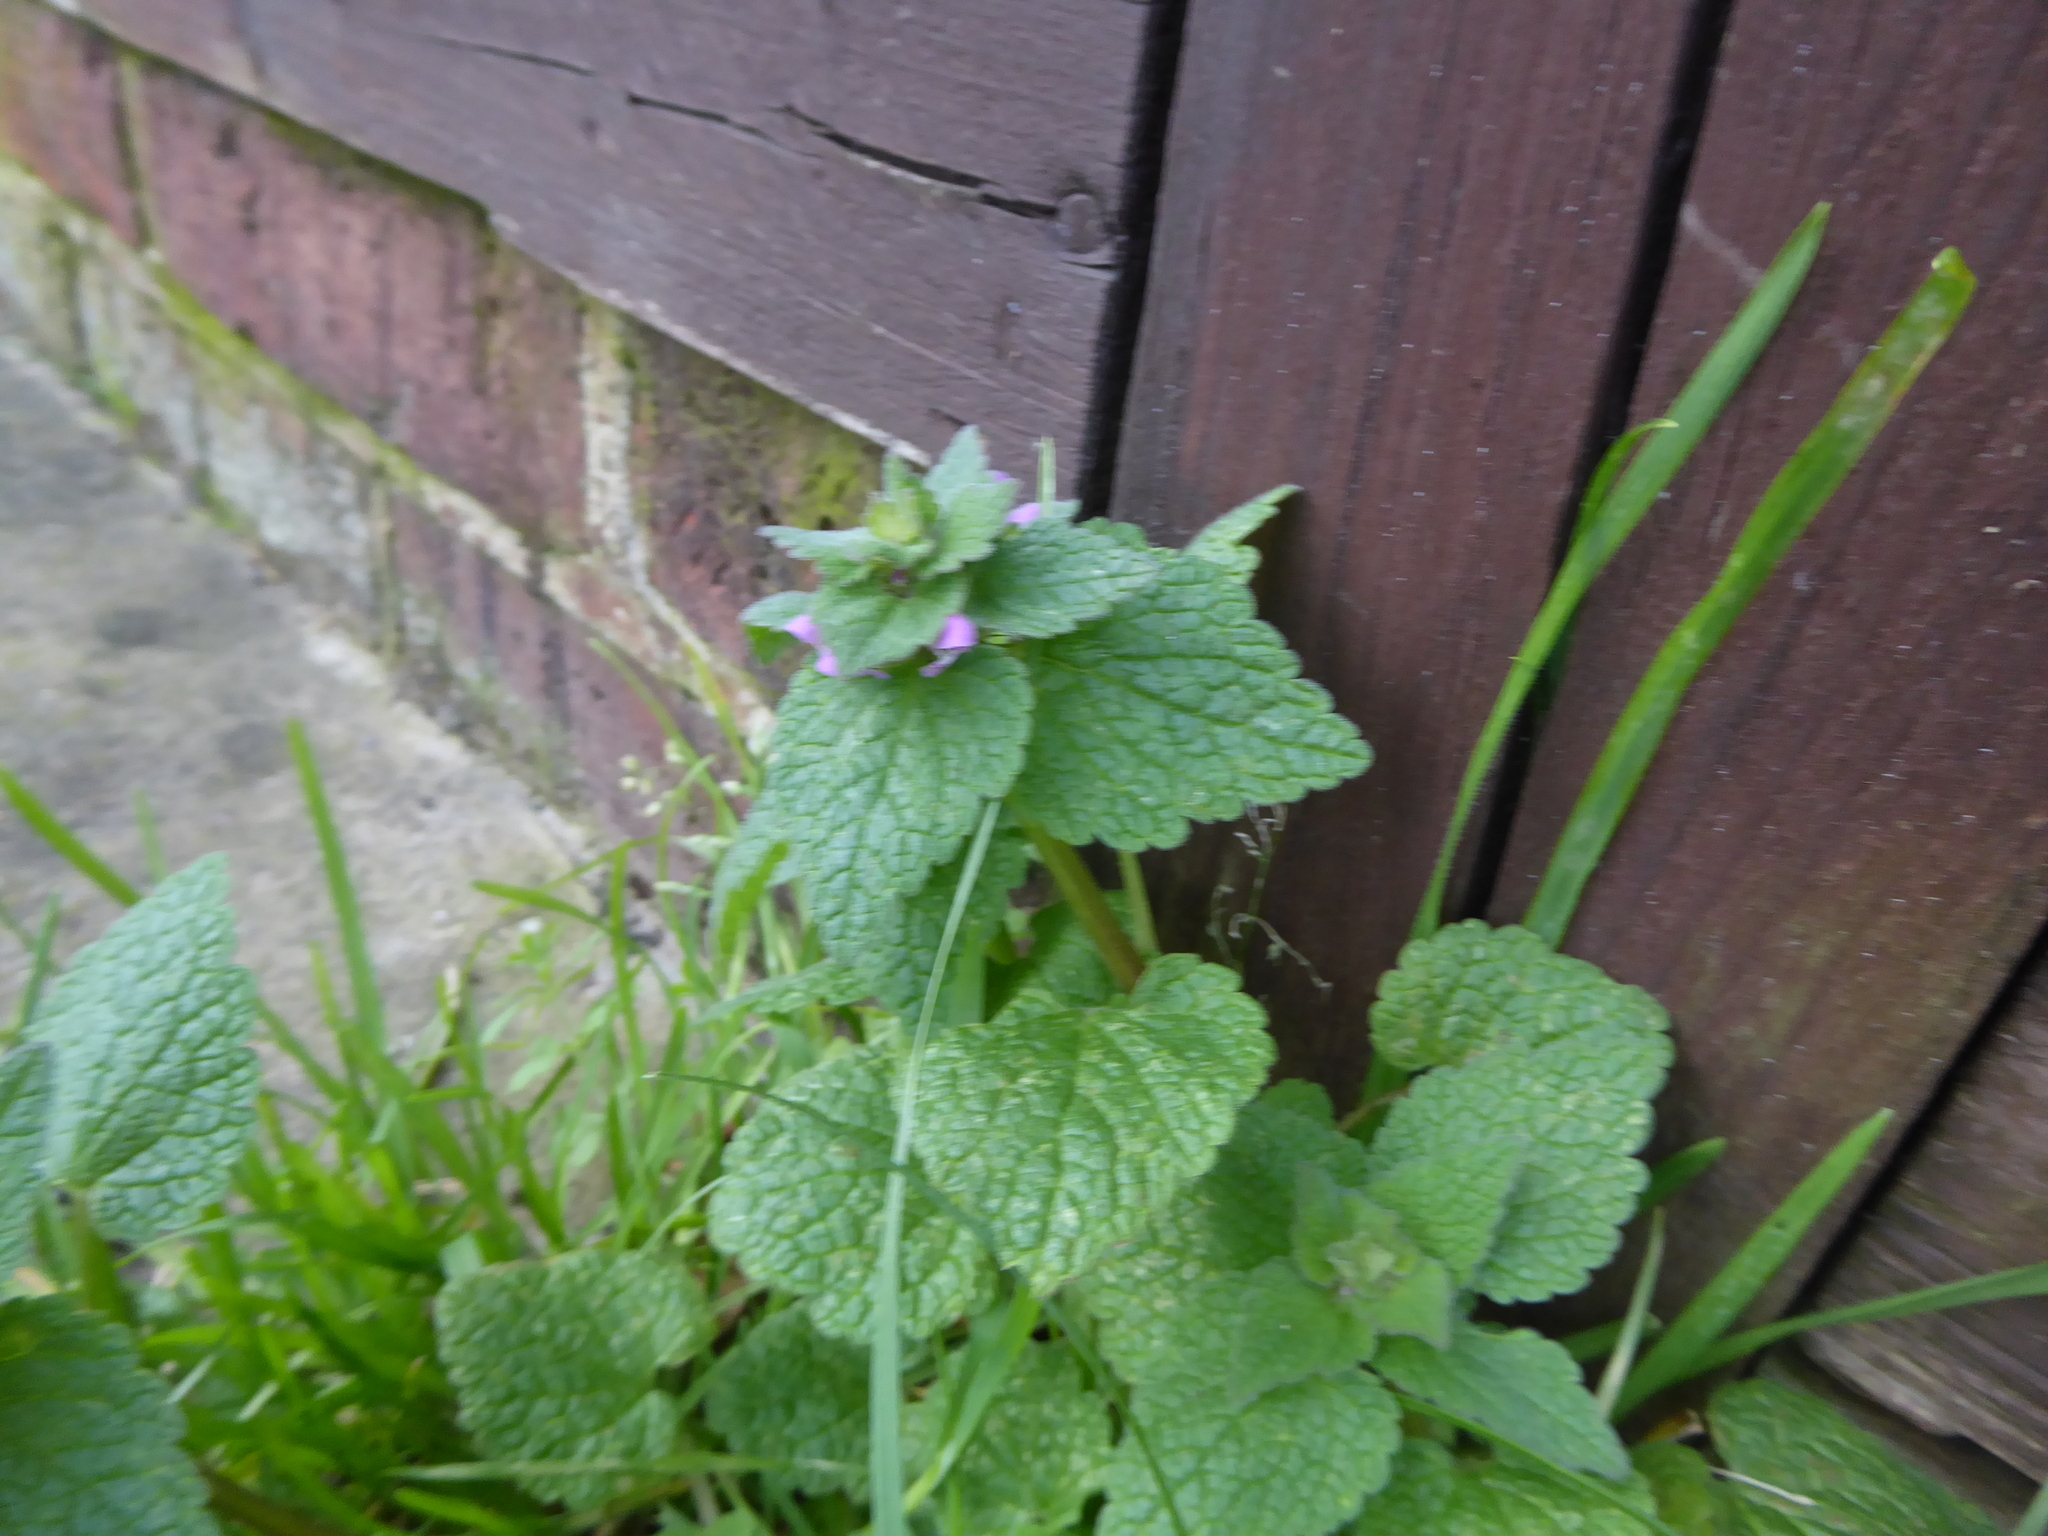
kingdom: Plantae
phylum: Tracheophyta
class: Magnoliopsida
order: Lamiales
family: Lamiaceae
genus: Lamium
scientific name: Lamium purpureum
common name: Red dead-nettle
